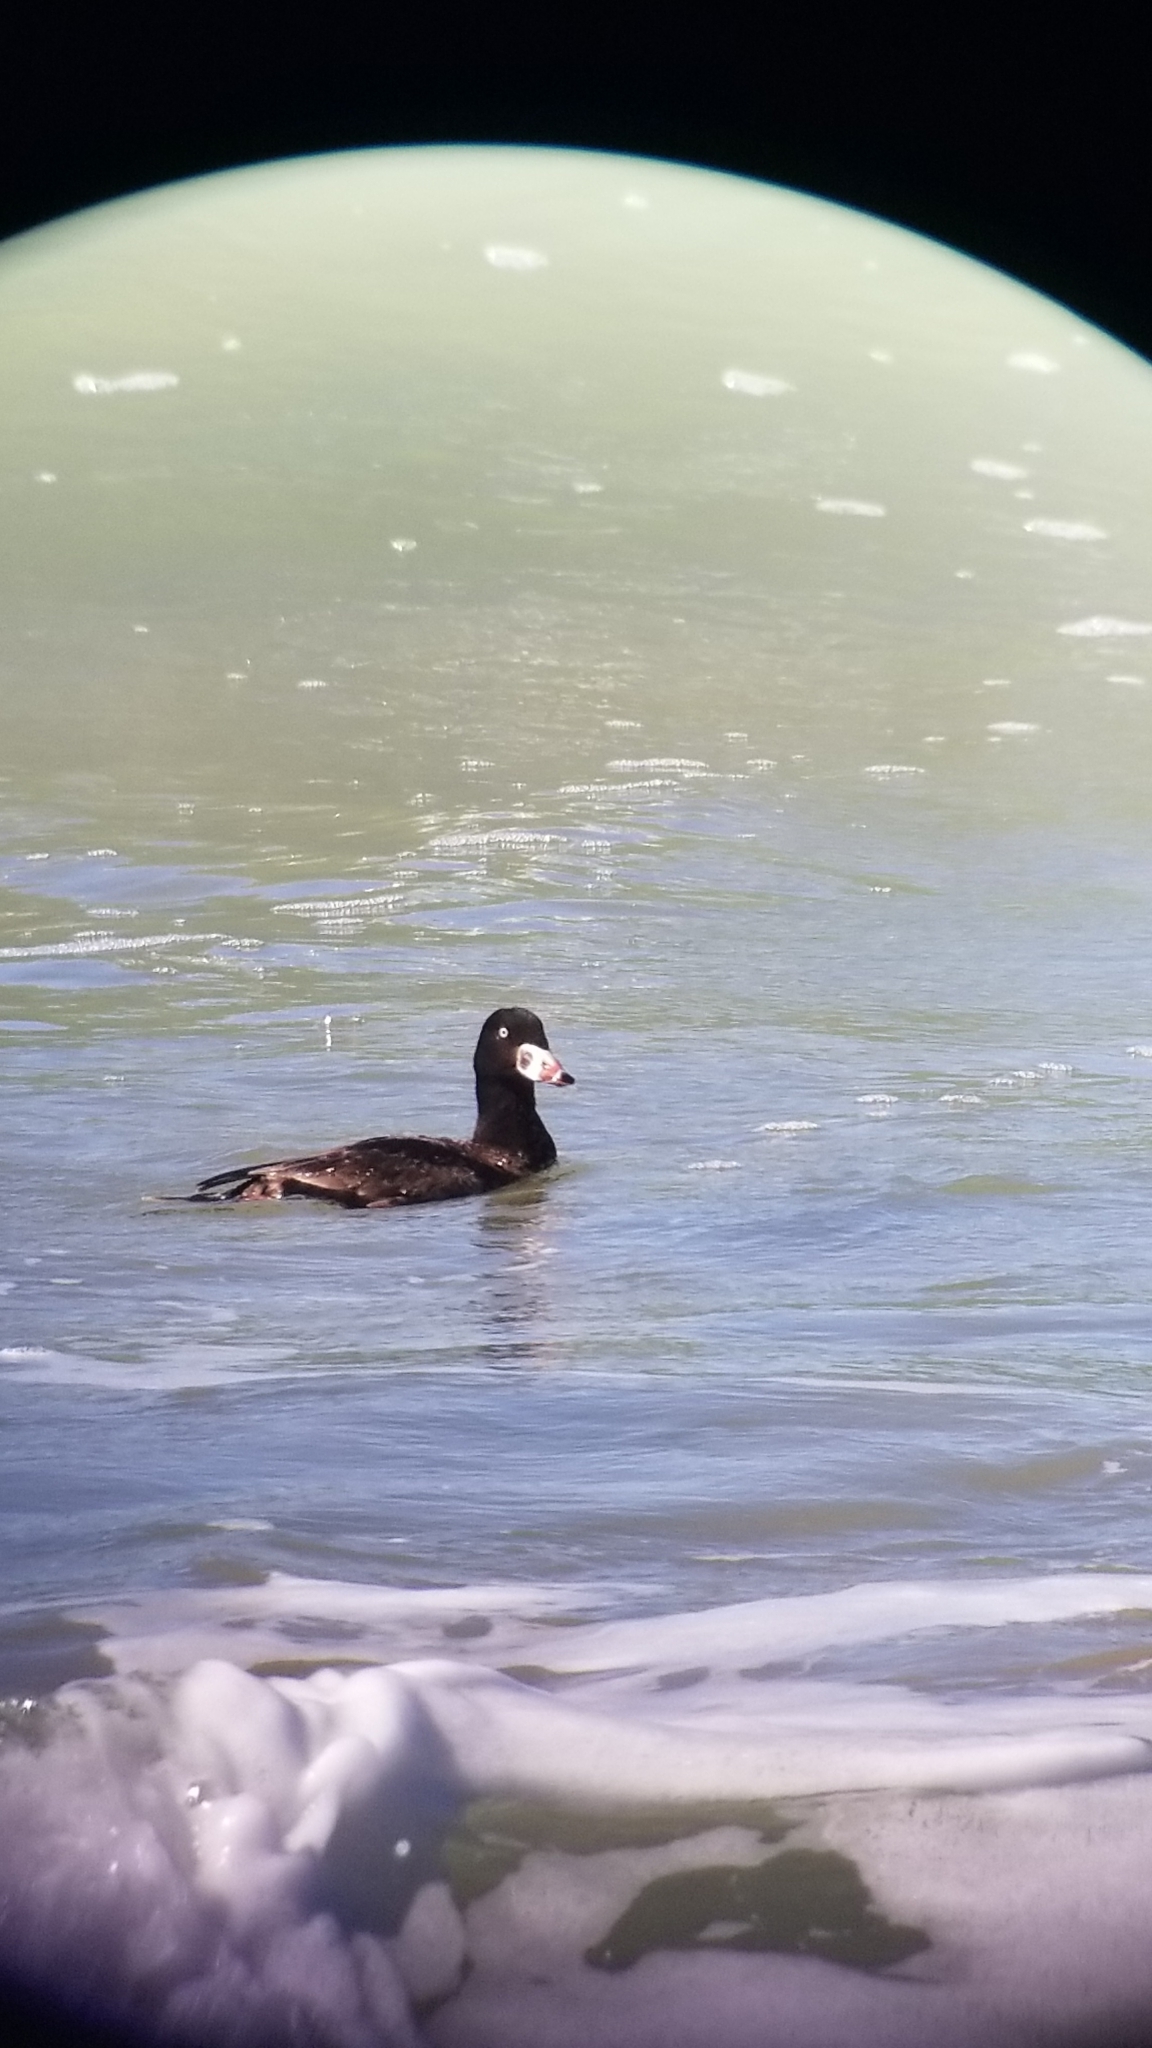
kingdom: Animalia
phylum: Chordata
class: Aves
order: Anseriformes
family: Anatidae
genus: Melanitta
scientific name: Melanitta perspicillata
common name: Surf scoter
